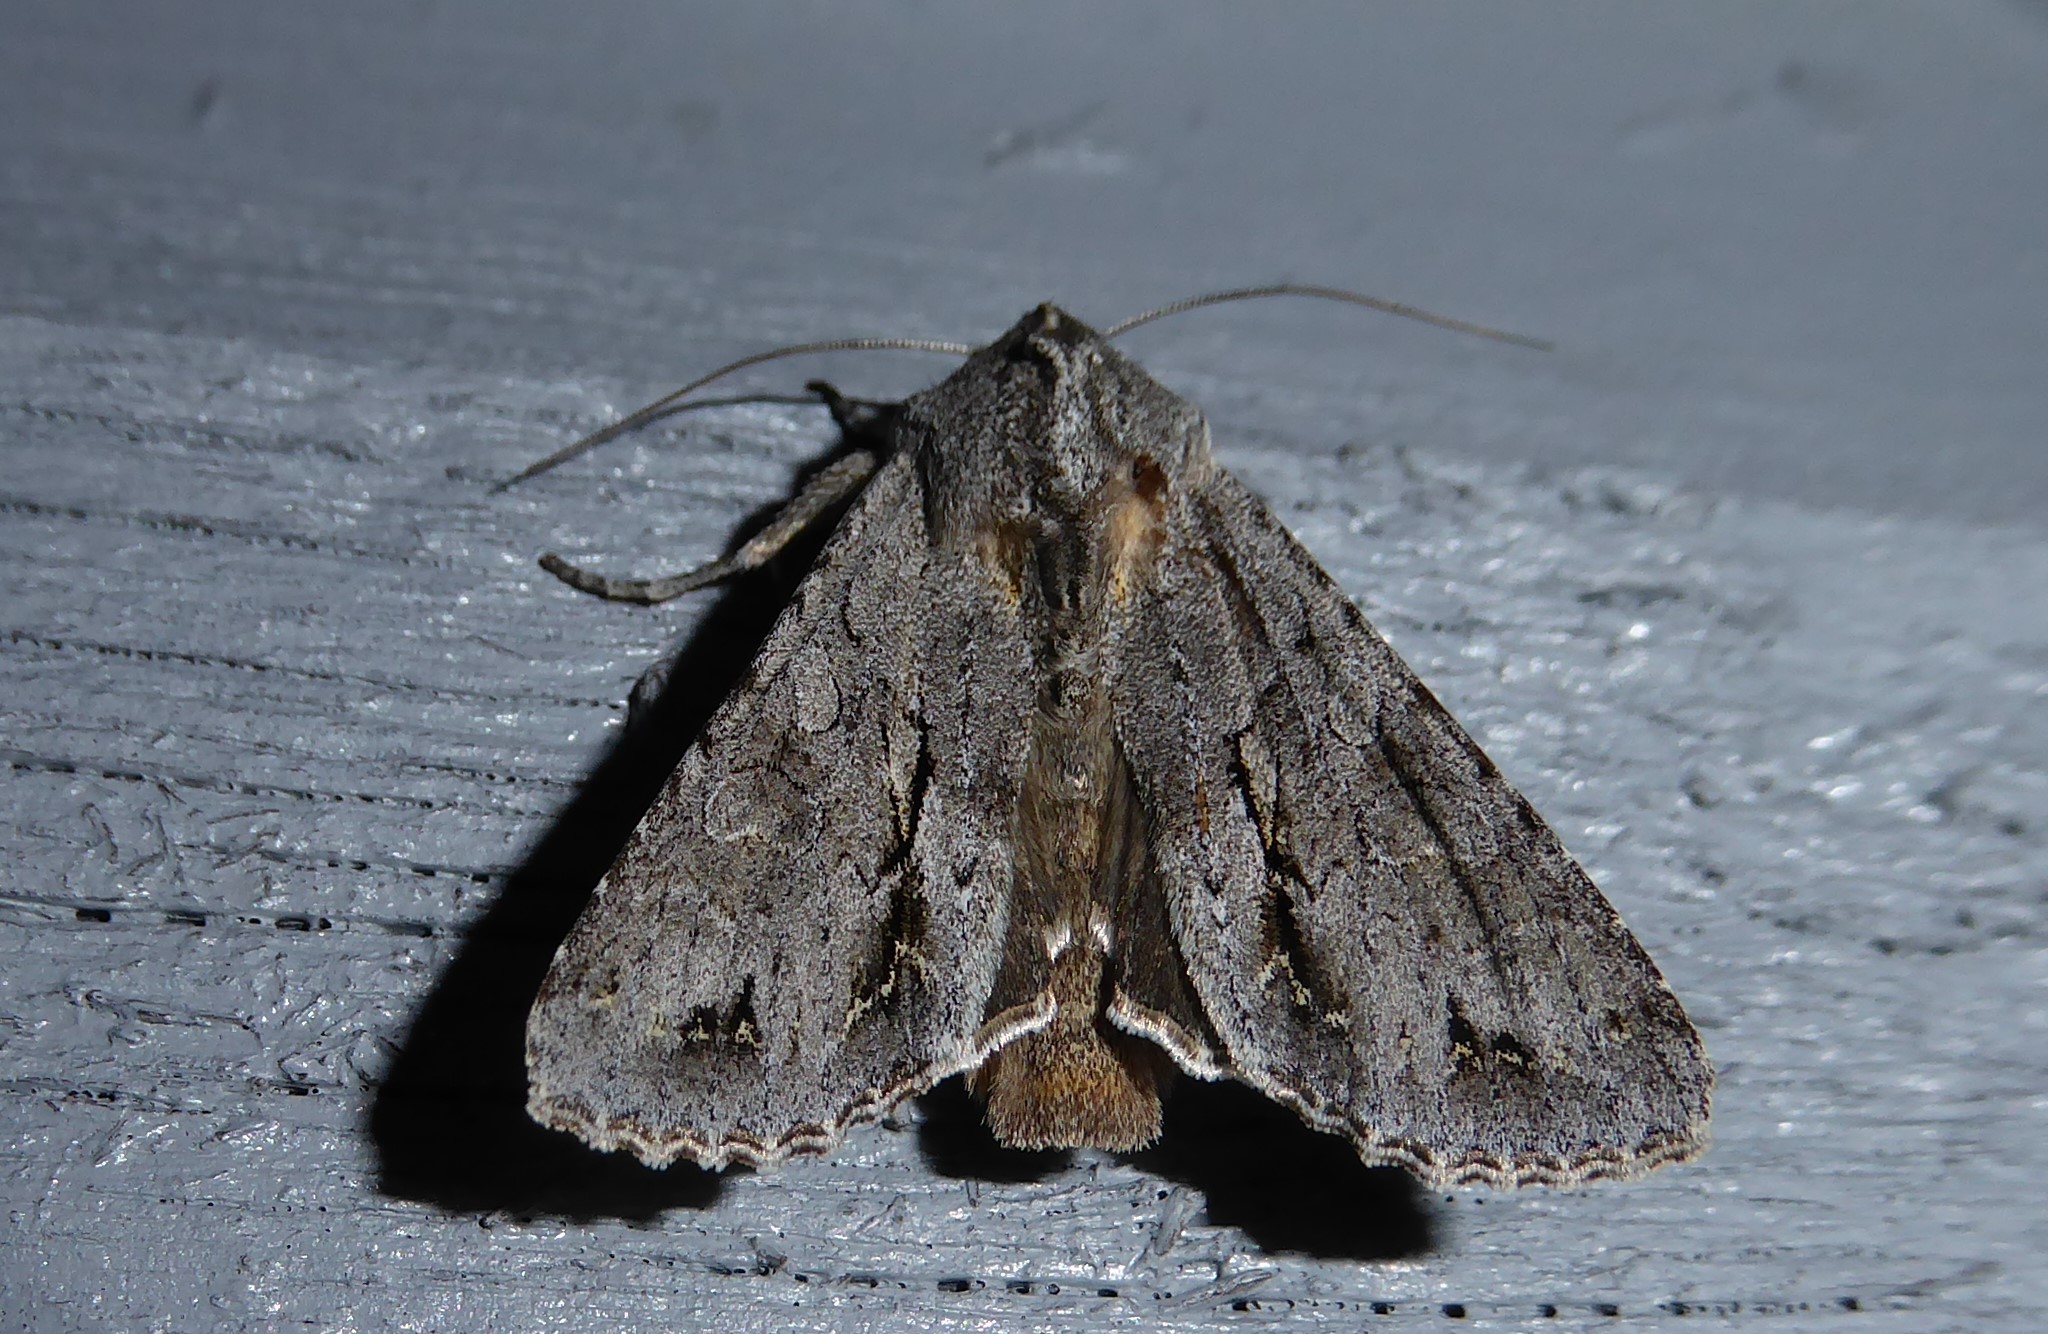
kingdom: Animalia
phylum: Arthropoda
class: Insecta
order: Lepidoptera
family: Noctuidae
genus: Ichneutica
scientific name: Ichneutica
